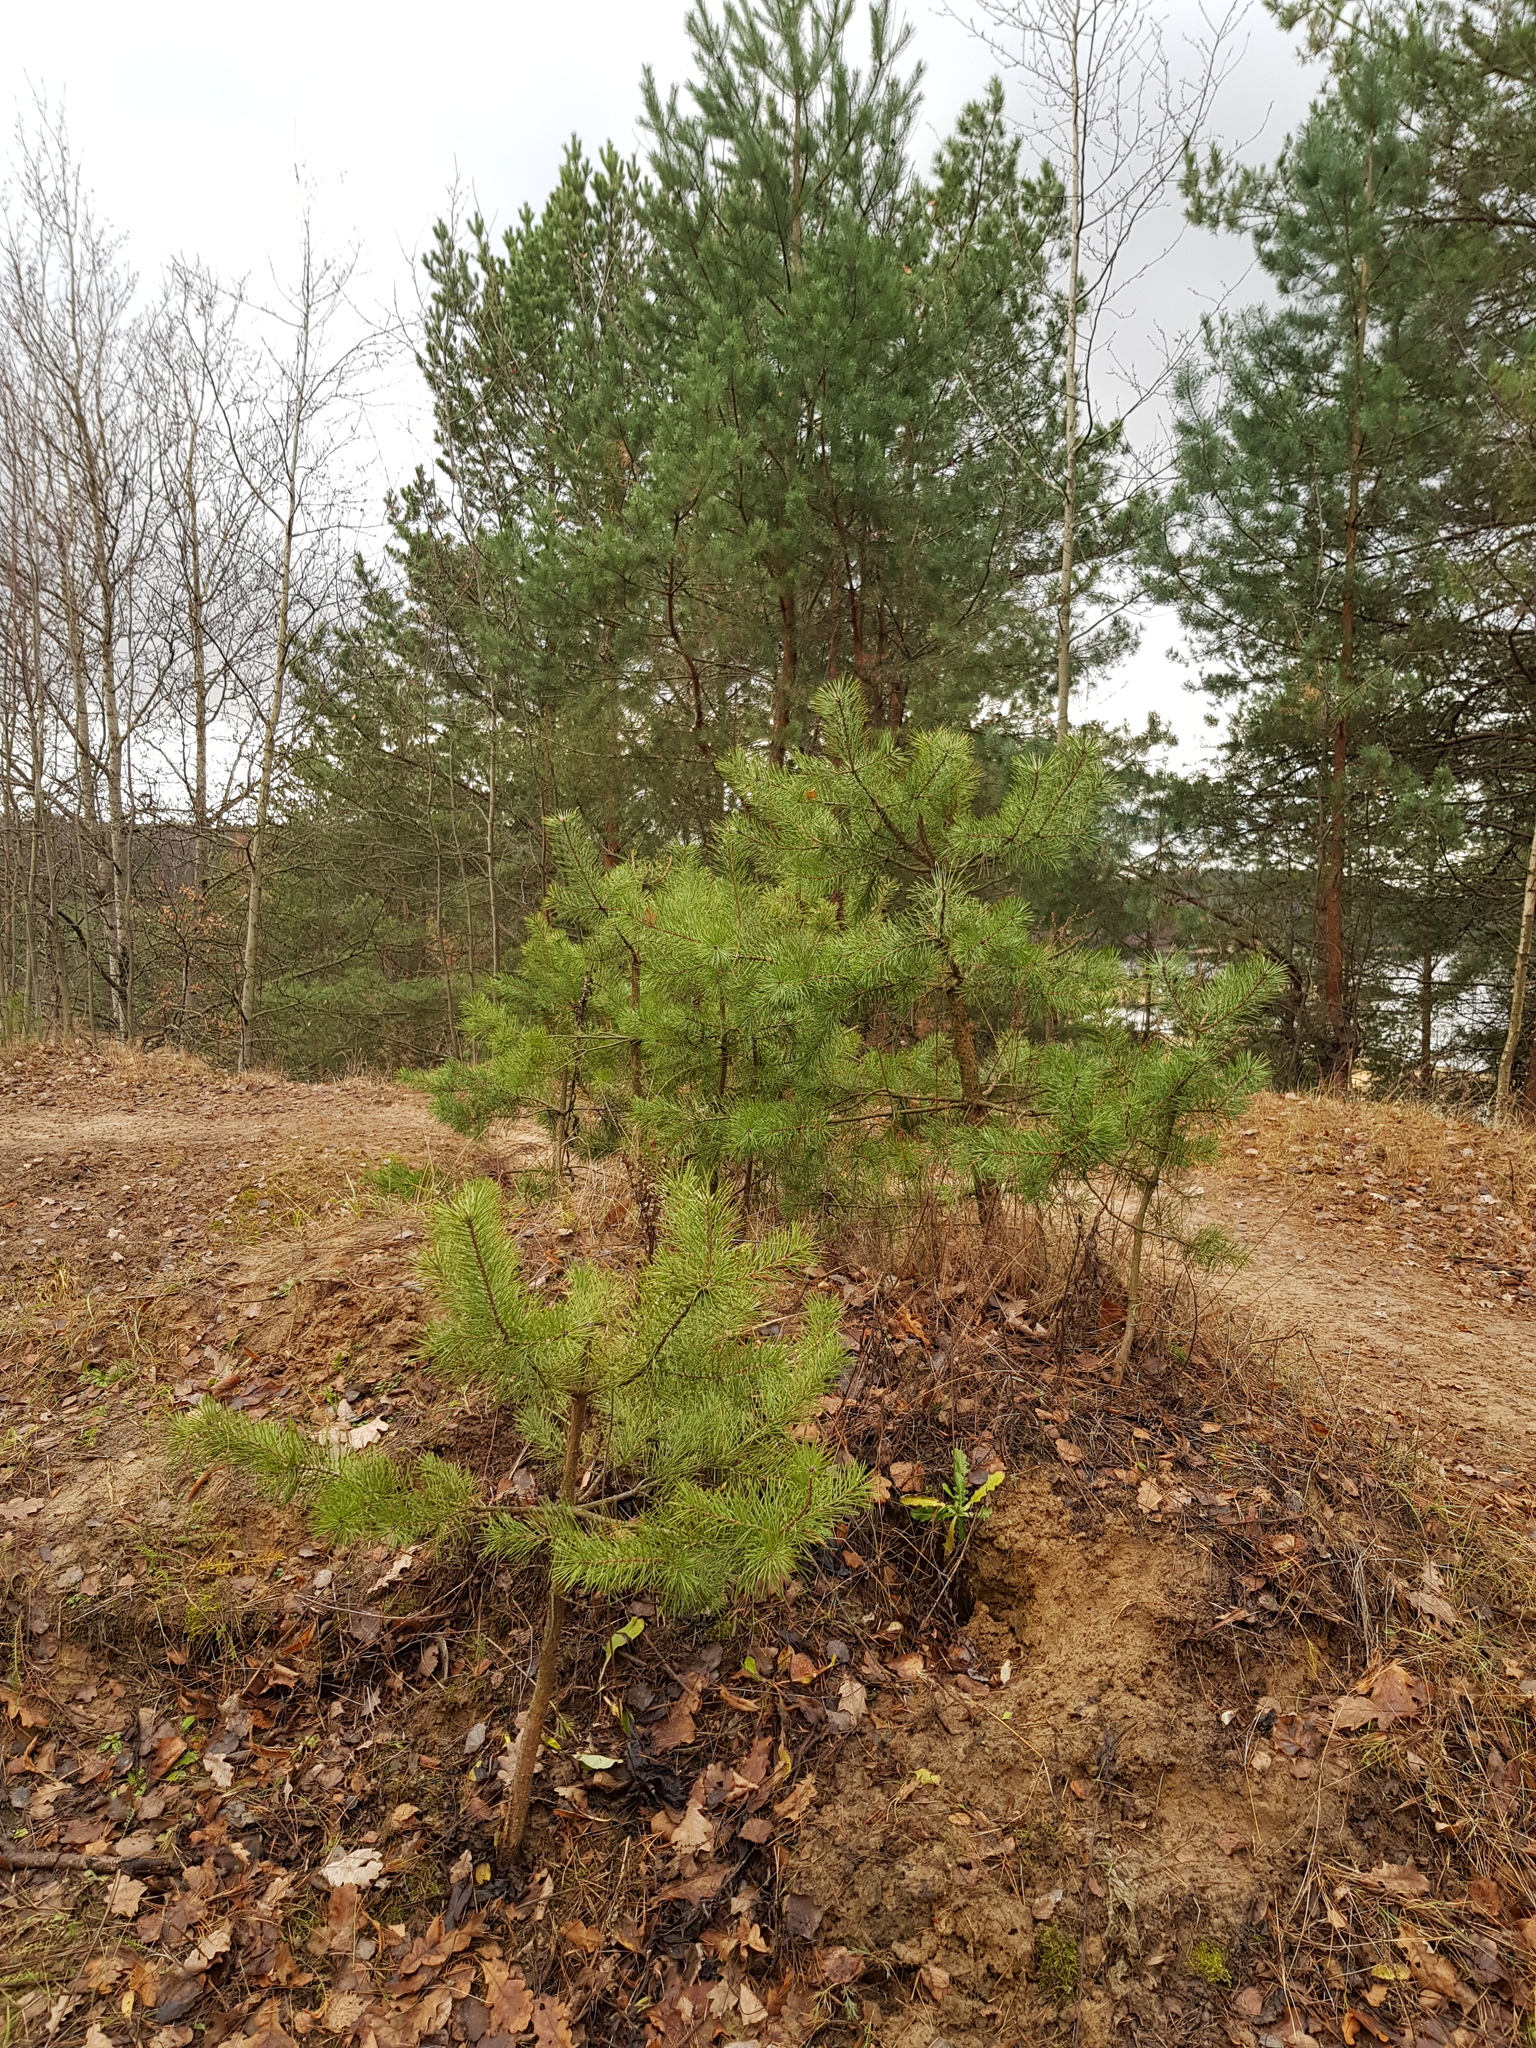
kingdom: Plantae
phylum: Tracheophyta
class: Pinopsida
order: Pinales
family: Pinaceae
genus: Pinus
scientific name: Pinus sylvestris
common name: Scots pine
